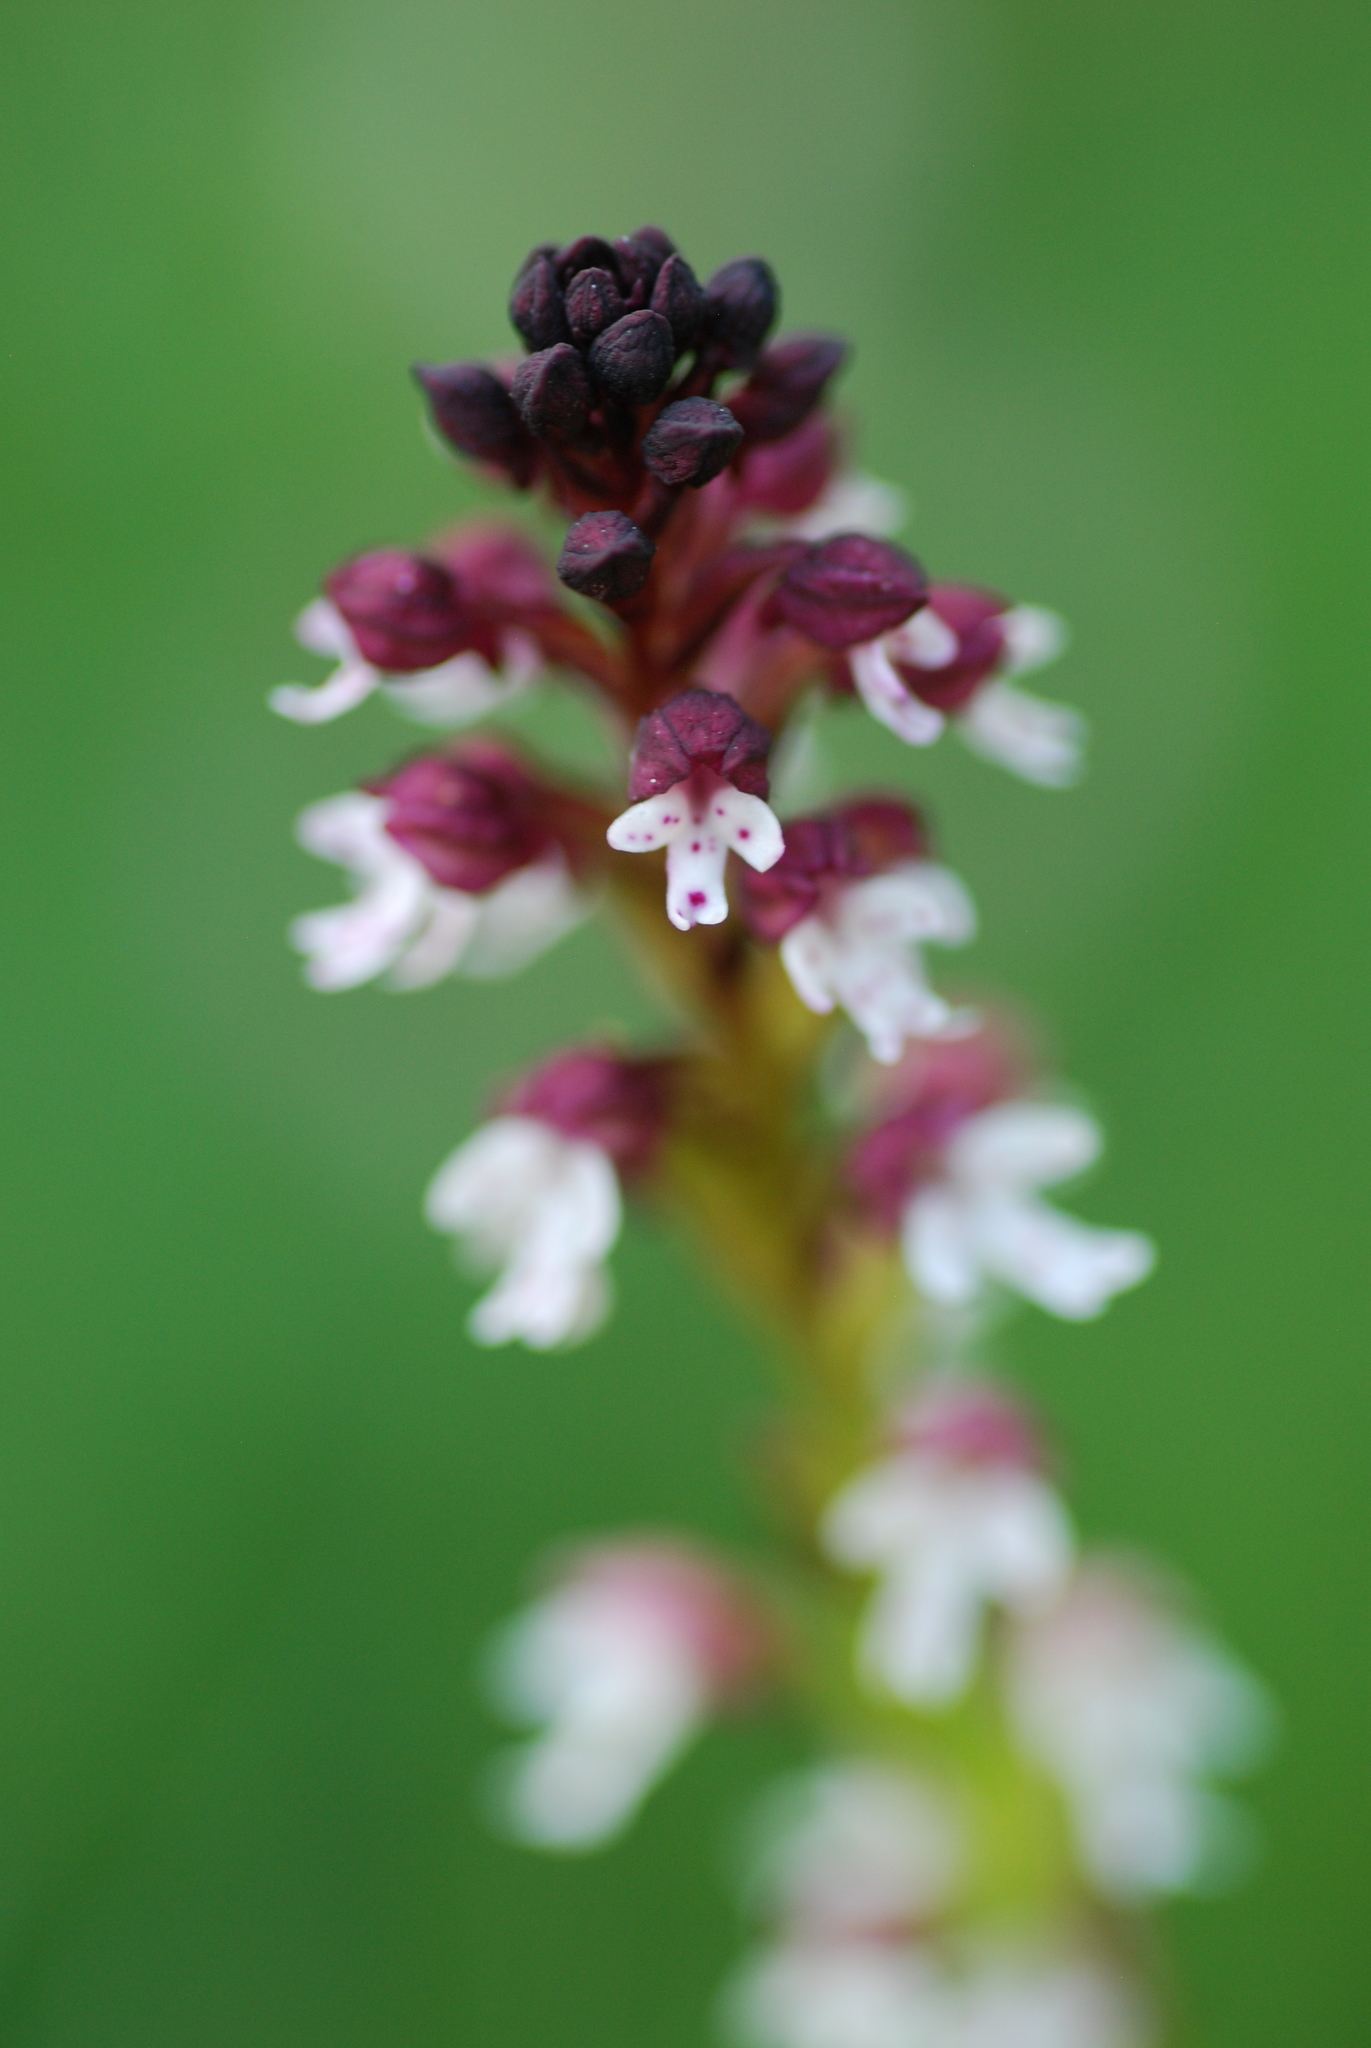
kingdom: Plantae
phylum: Tracheophyta
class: Liliopsida
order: Asparagales
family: Orchidaceae
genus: Neotinea
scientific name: Neotinea ustulata
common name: Burnt orchid
